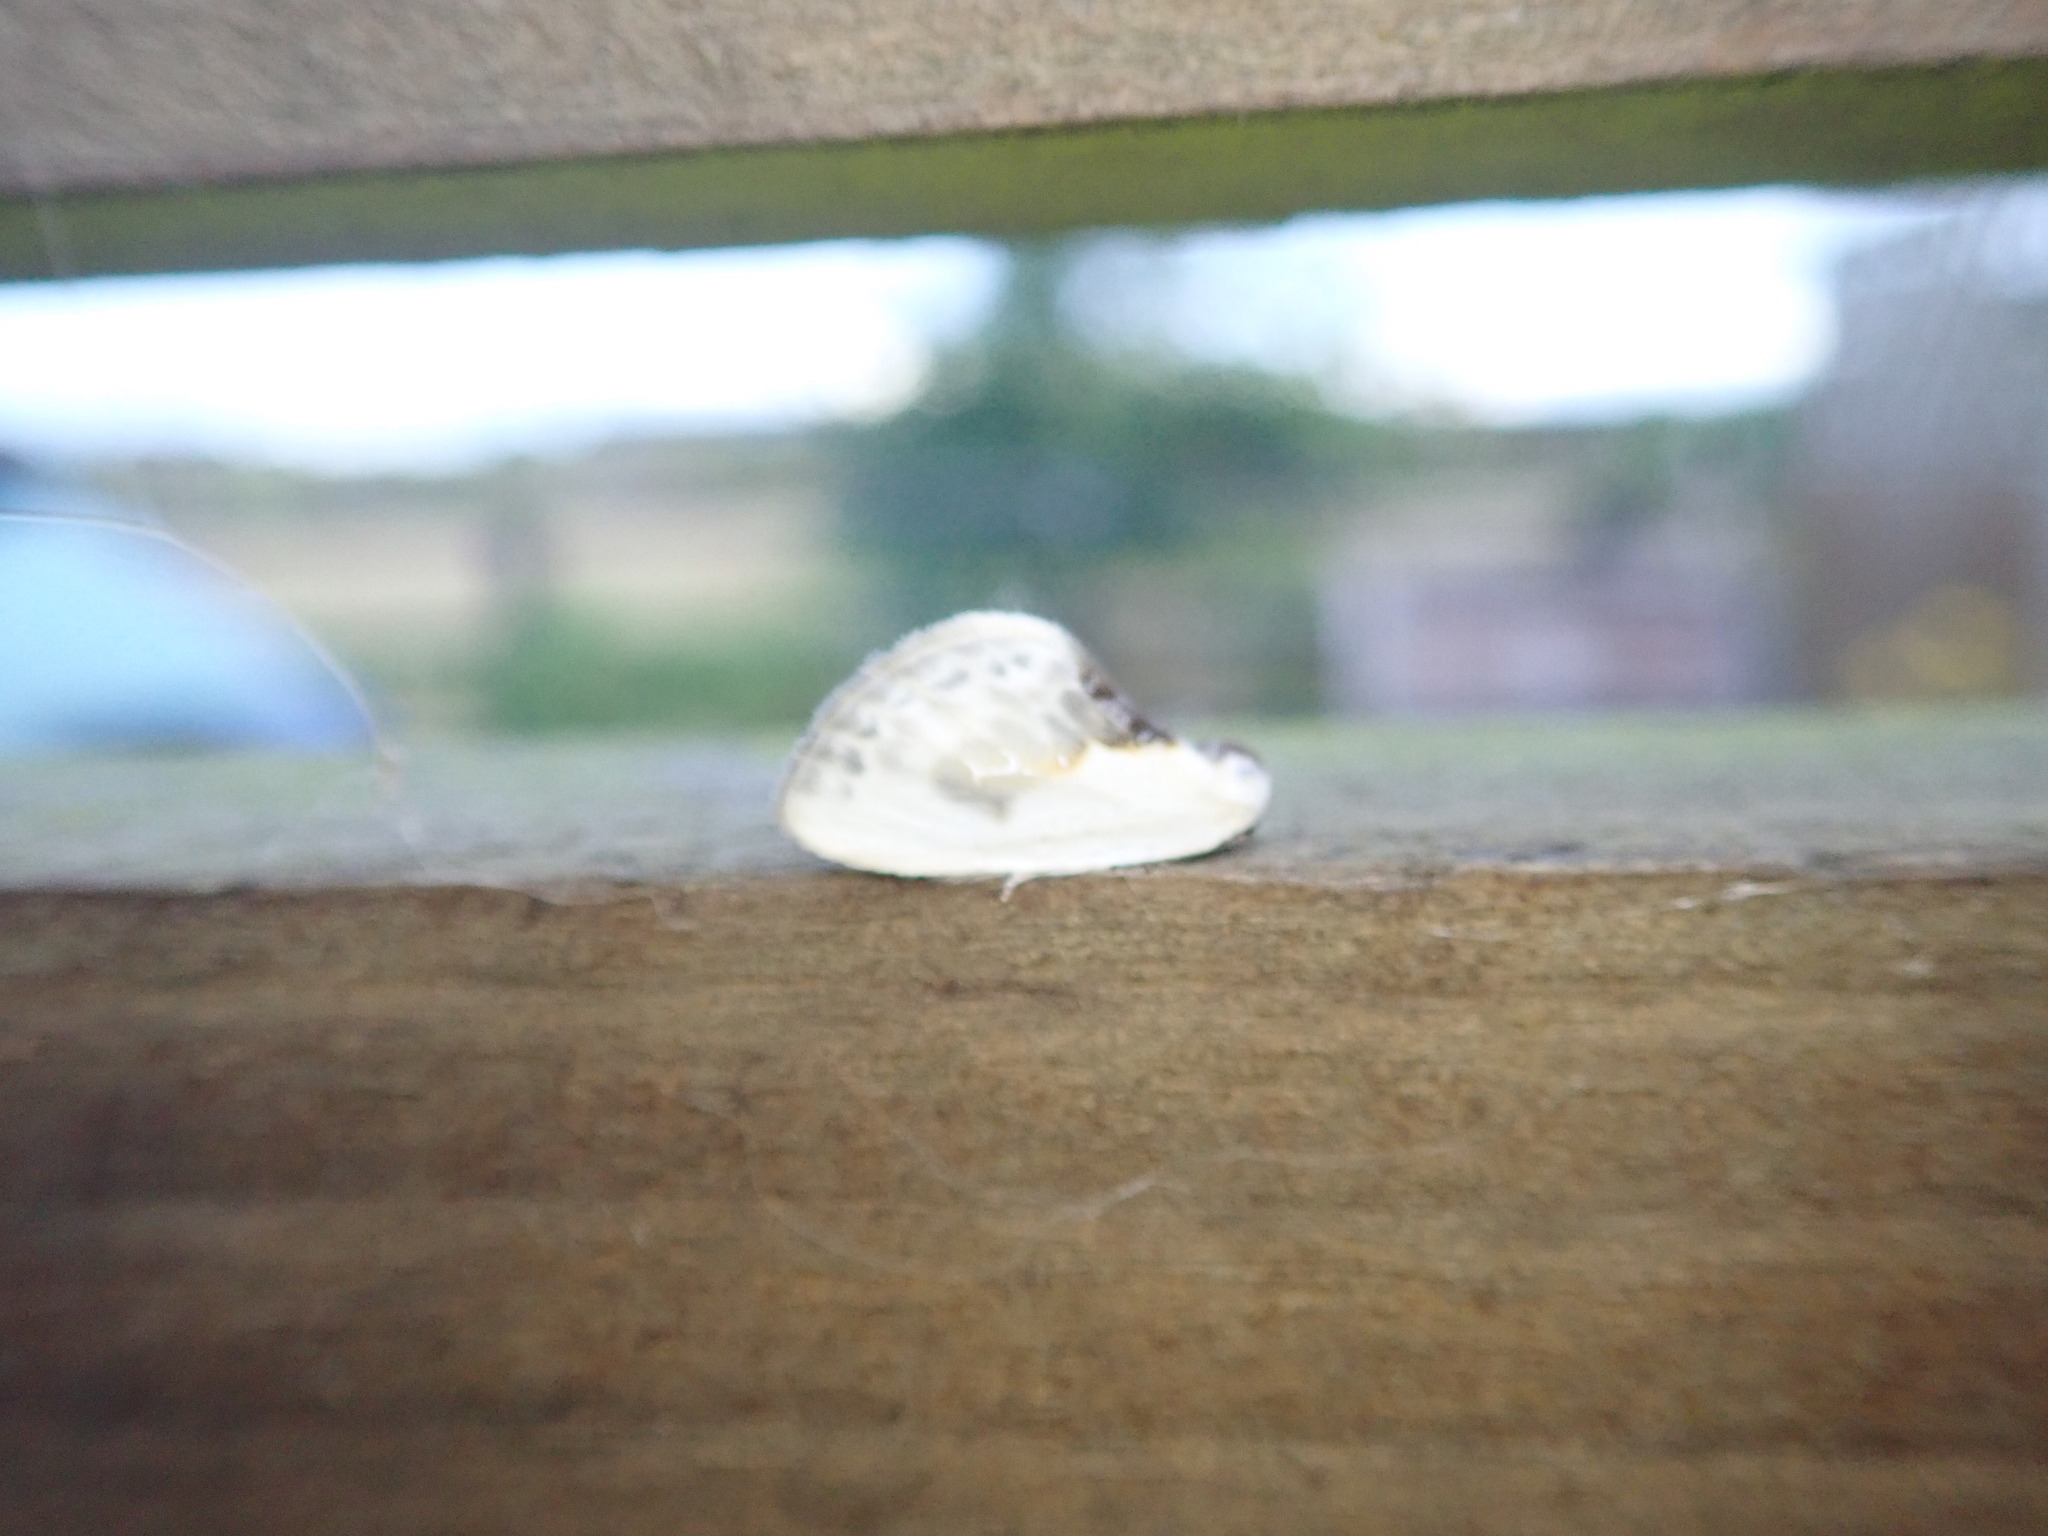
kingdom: Animalia
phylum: Arthropoda
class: Insecta
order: Lepidoptera
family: Drepanidae
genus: Cilix
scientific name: Cilix glaucata
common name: Chinese character
